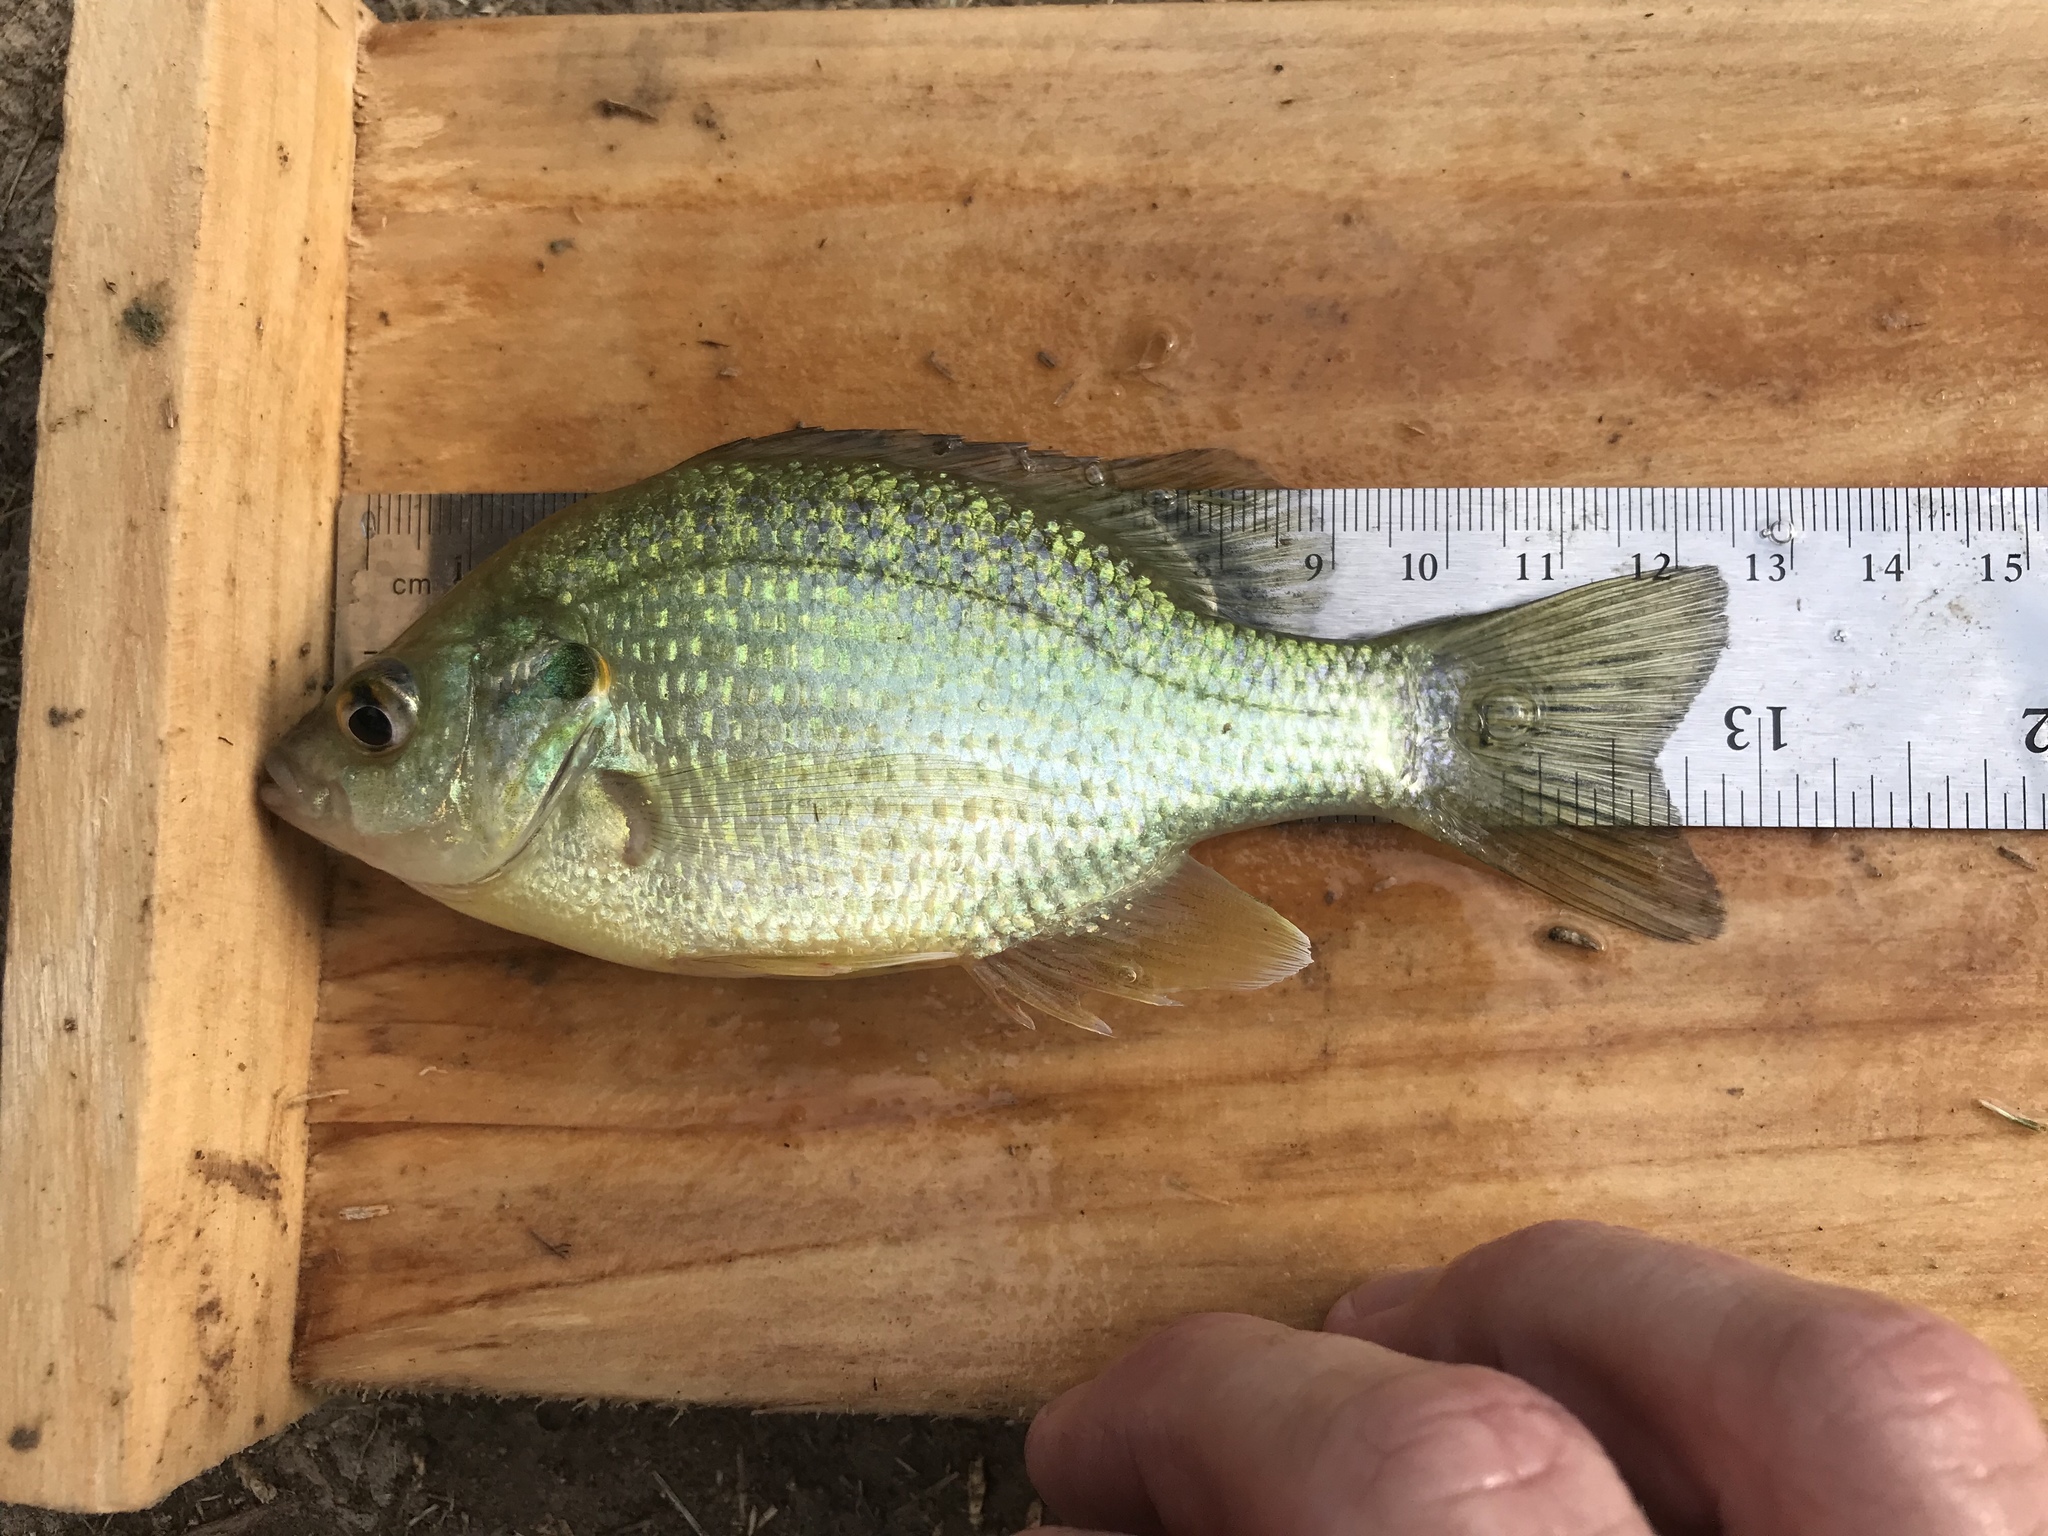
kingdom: Animalia
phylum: Chordata
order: Perciformes
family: Centrarchidae
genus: Lepomis
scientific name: Lepomis microlophus
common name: Redear sunfish
